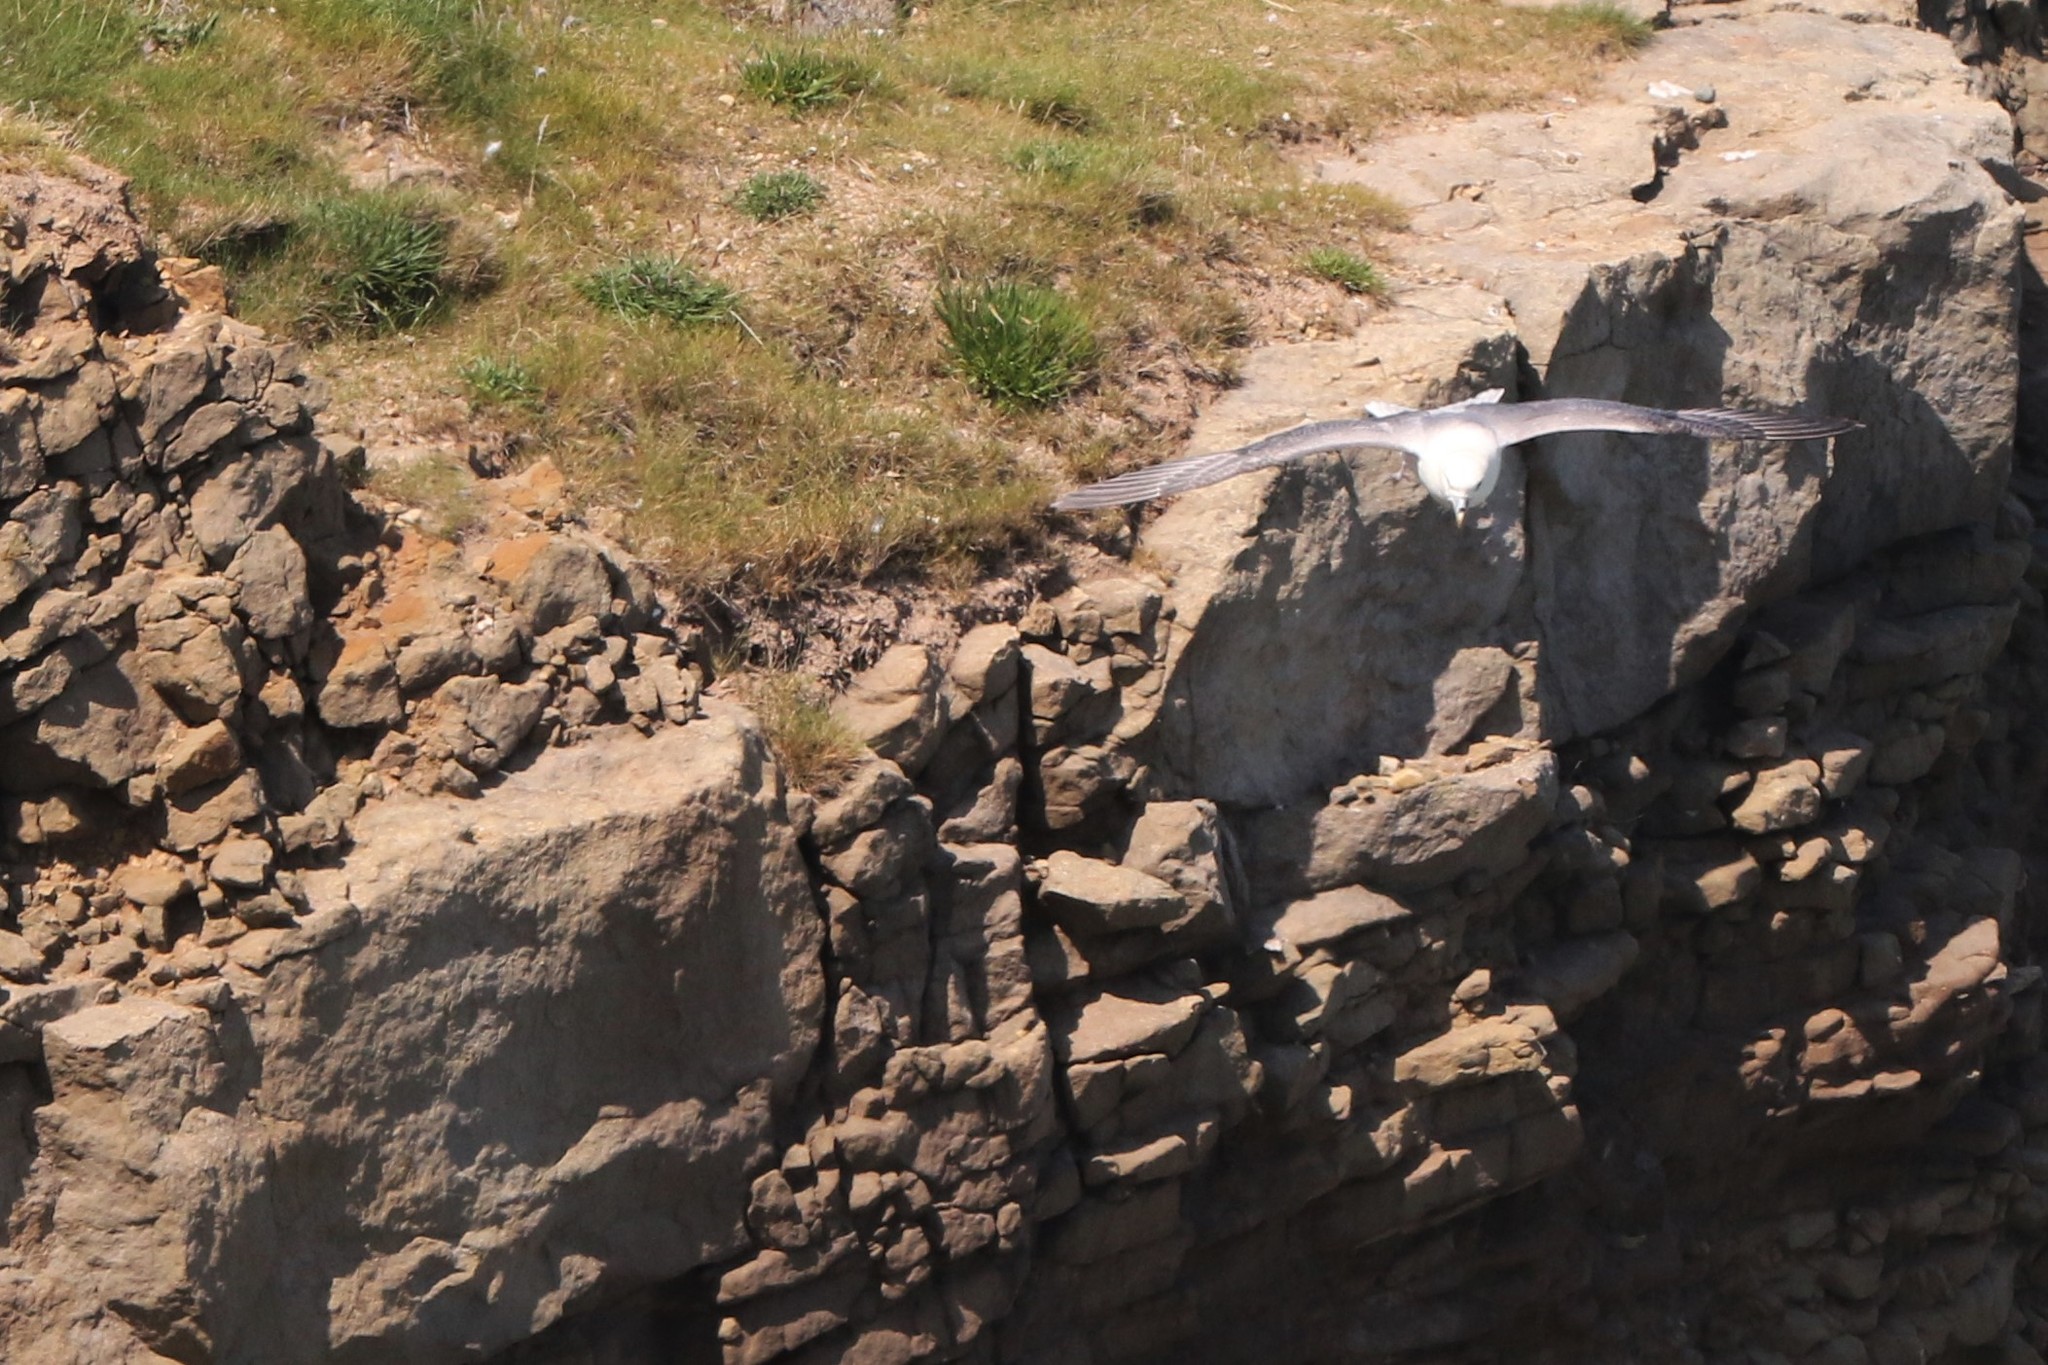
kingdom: Animalia
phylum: Chordata
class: Aves
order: Procellariiformes
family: Procellariidae
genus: Fulmarus
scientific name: Fulmarus glacialis
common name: Northern fulmar
